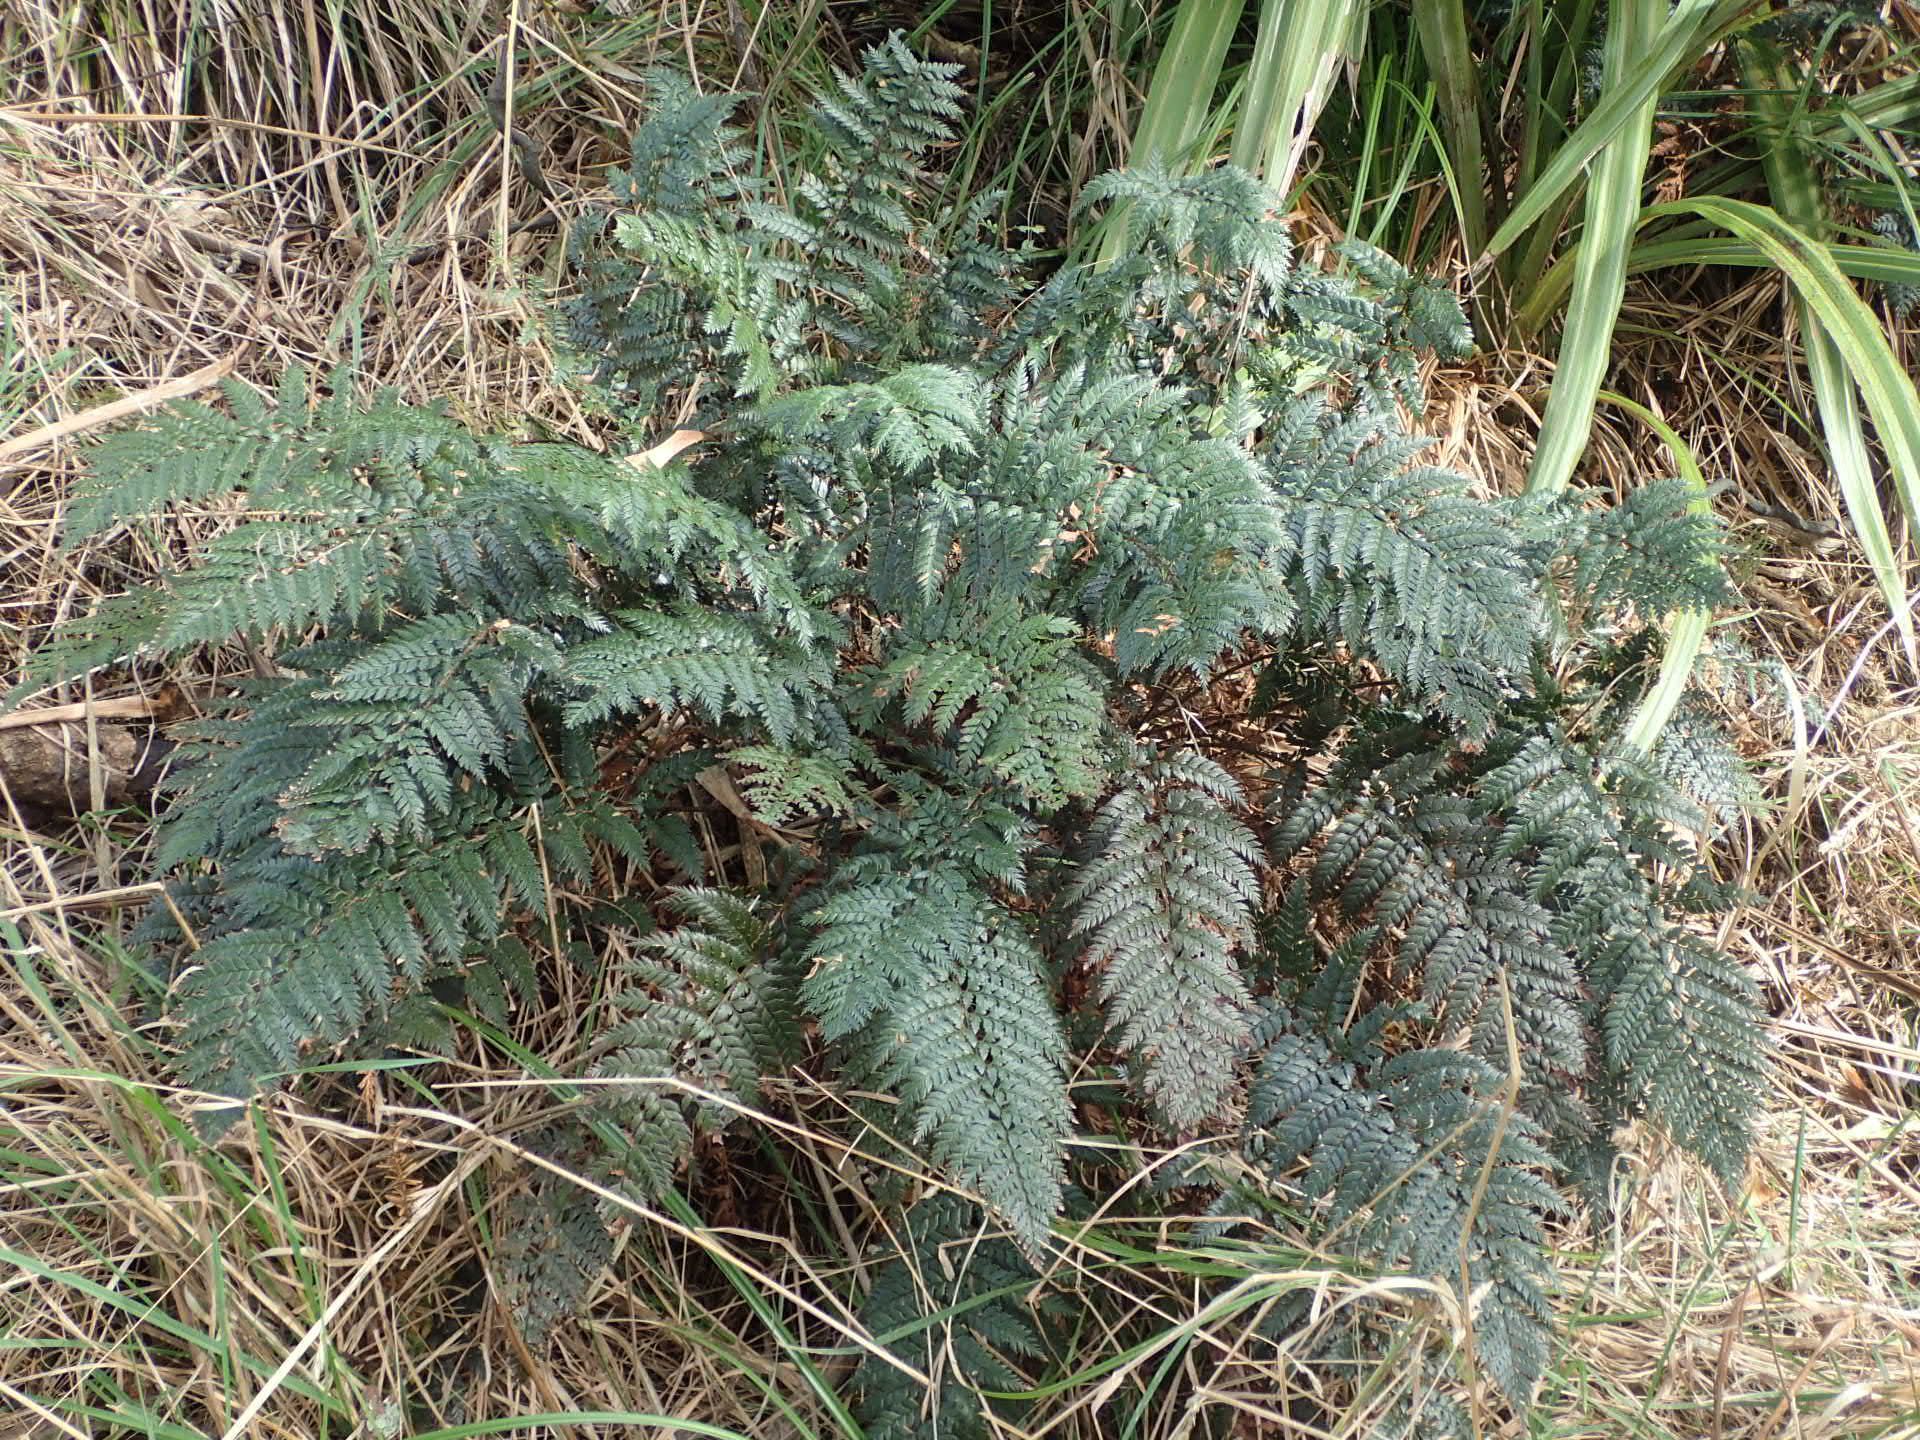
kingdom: Plantae
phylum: Tracheophyta
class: Polypodiopsida
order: Polypodiales
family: Dryopteridaceae
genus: Polystichum
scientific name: Polystichum vestitum
